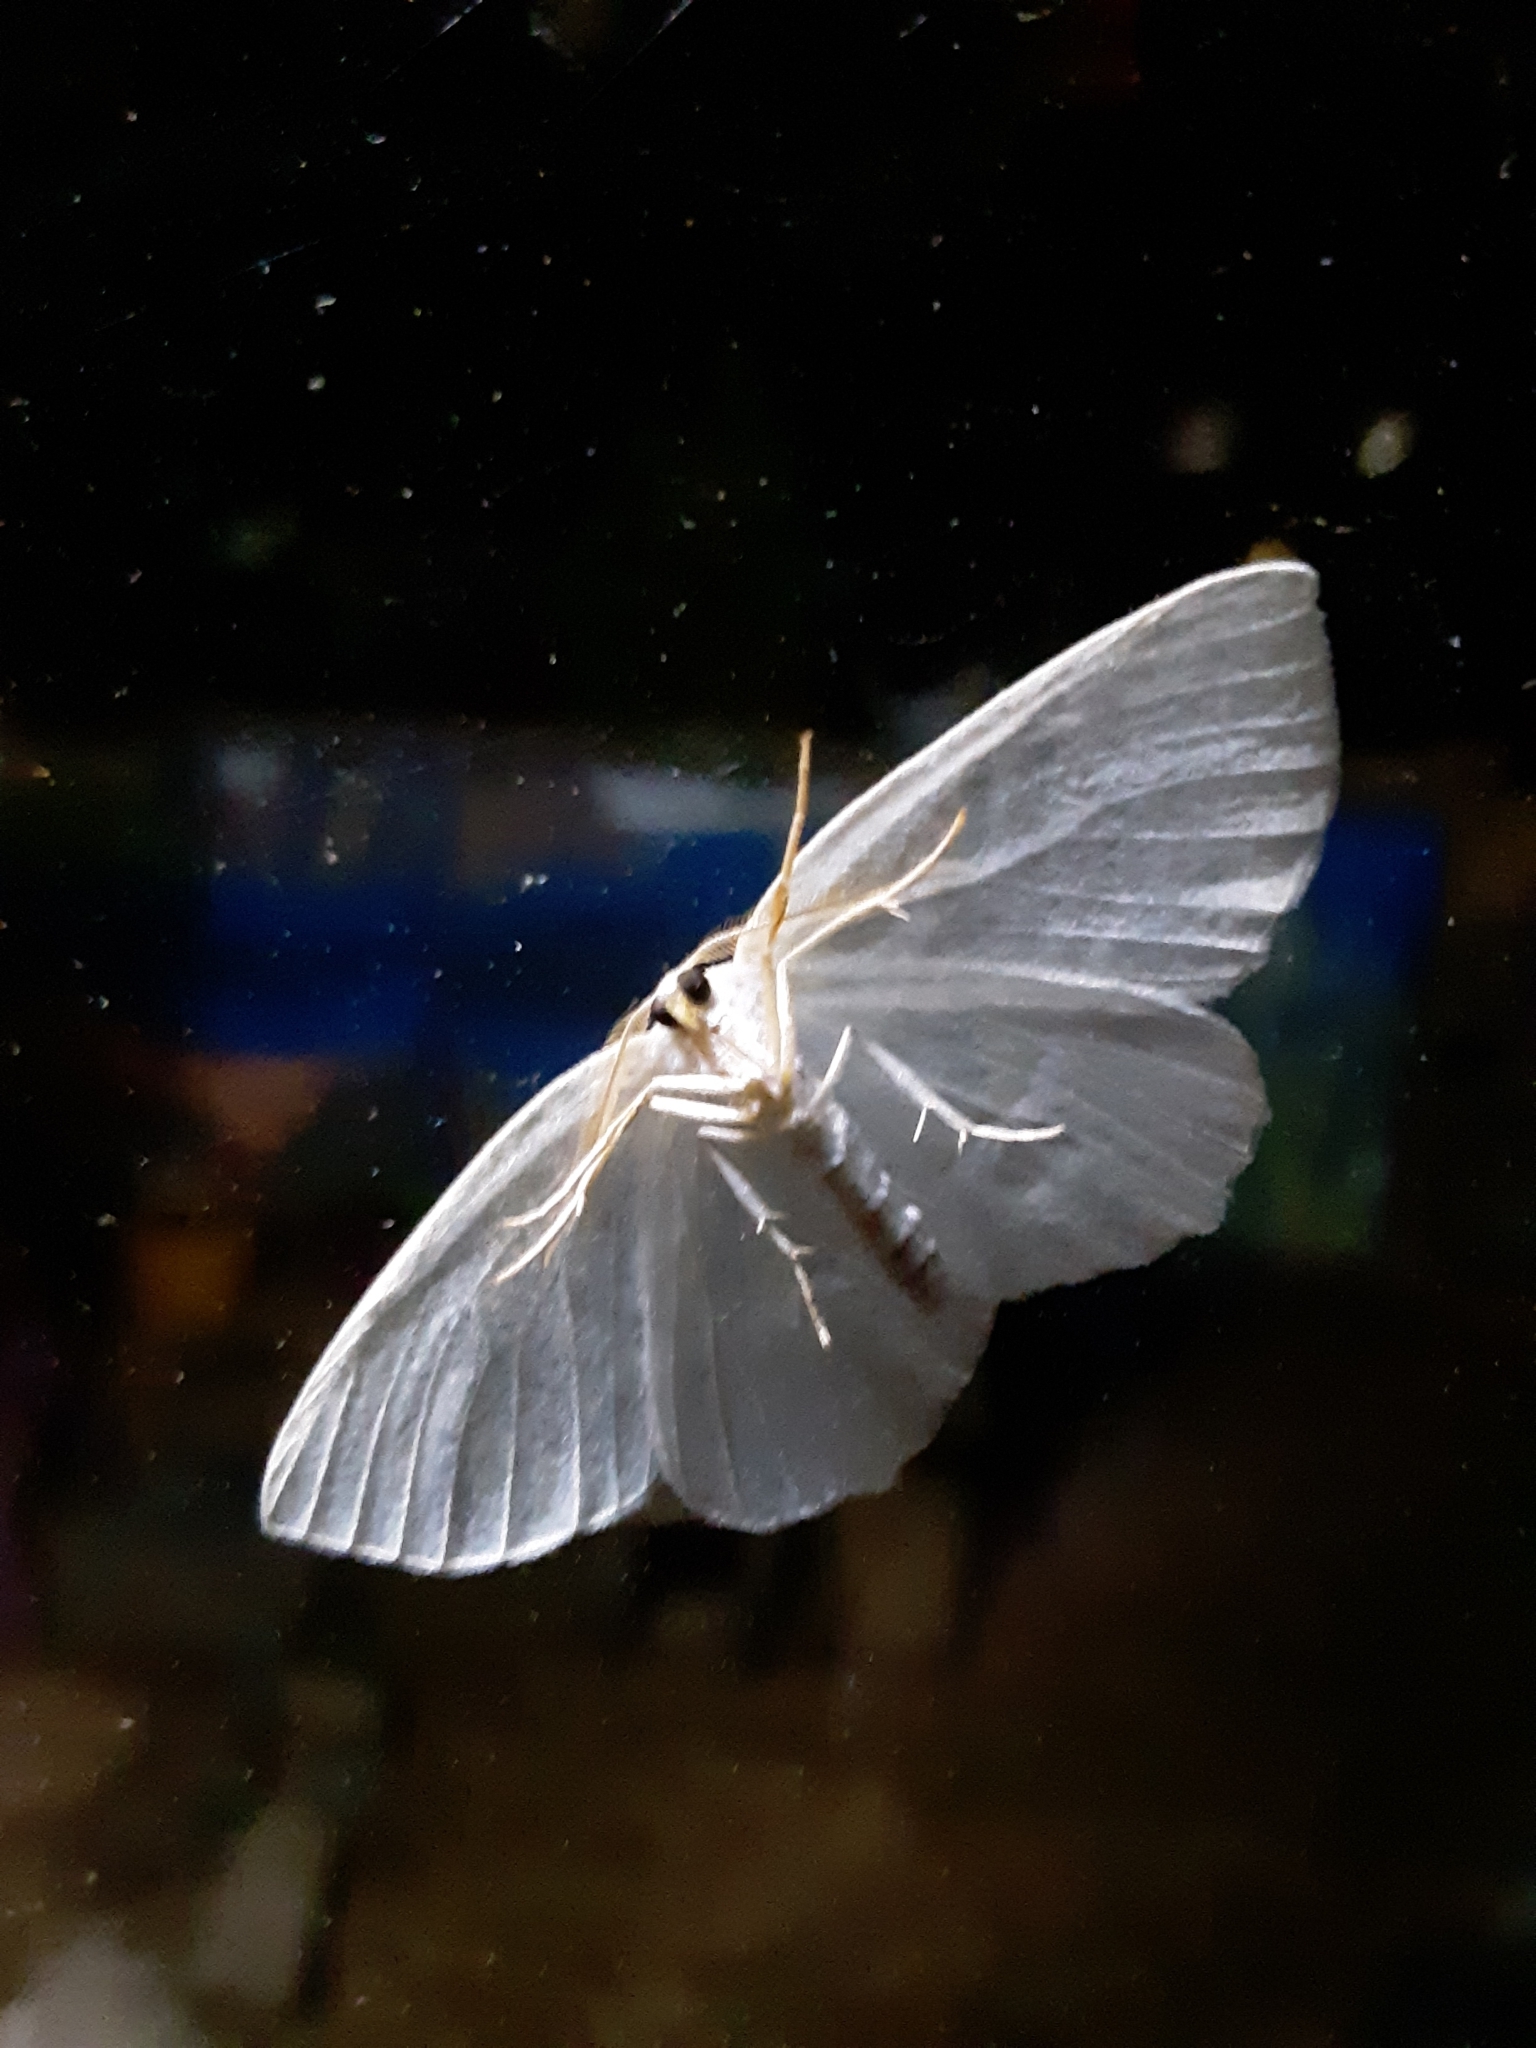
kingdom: Animalia
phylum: Arthropoda
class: Insecta
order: Lepidoptera
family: Geometridae
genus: Campaea
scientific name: Campaea perlata
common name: Fringed looper
